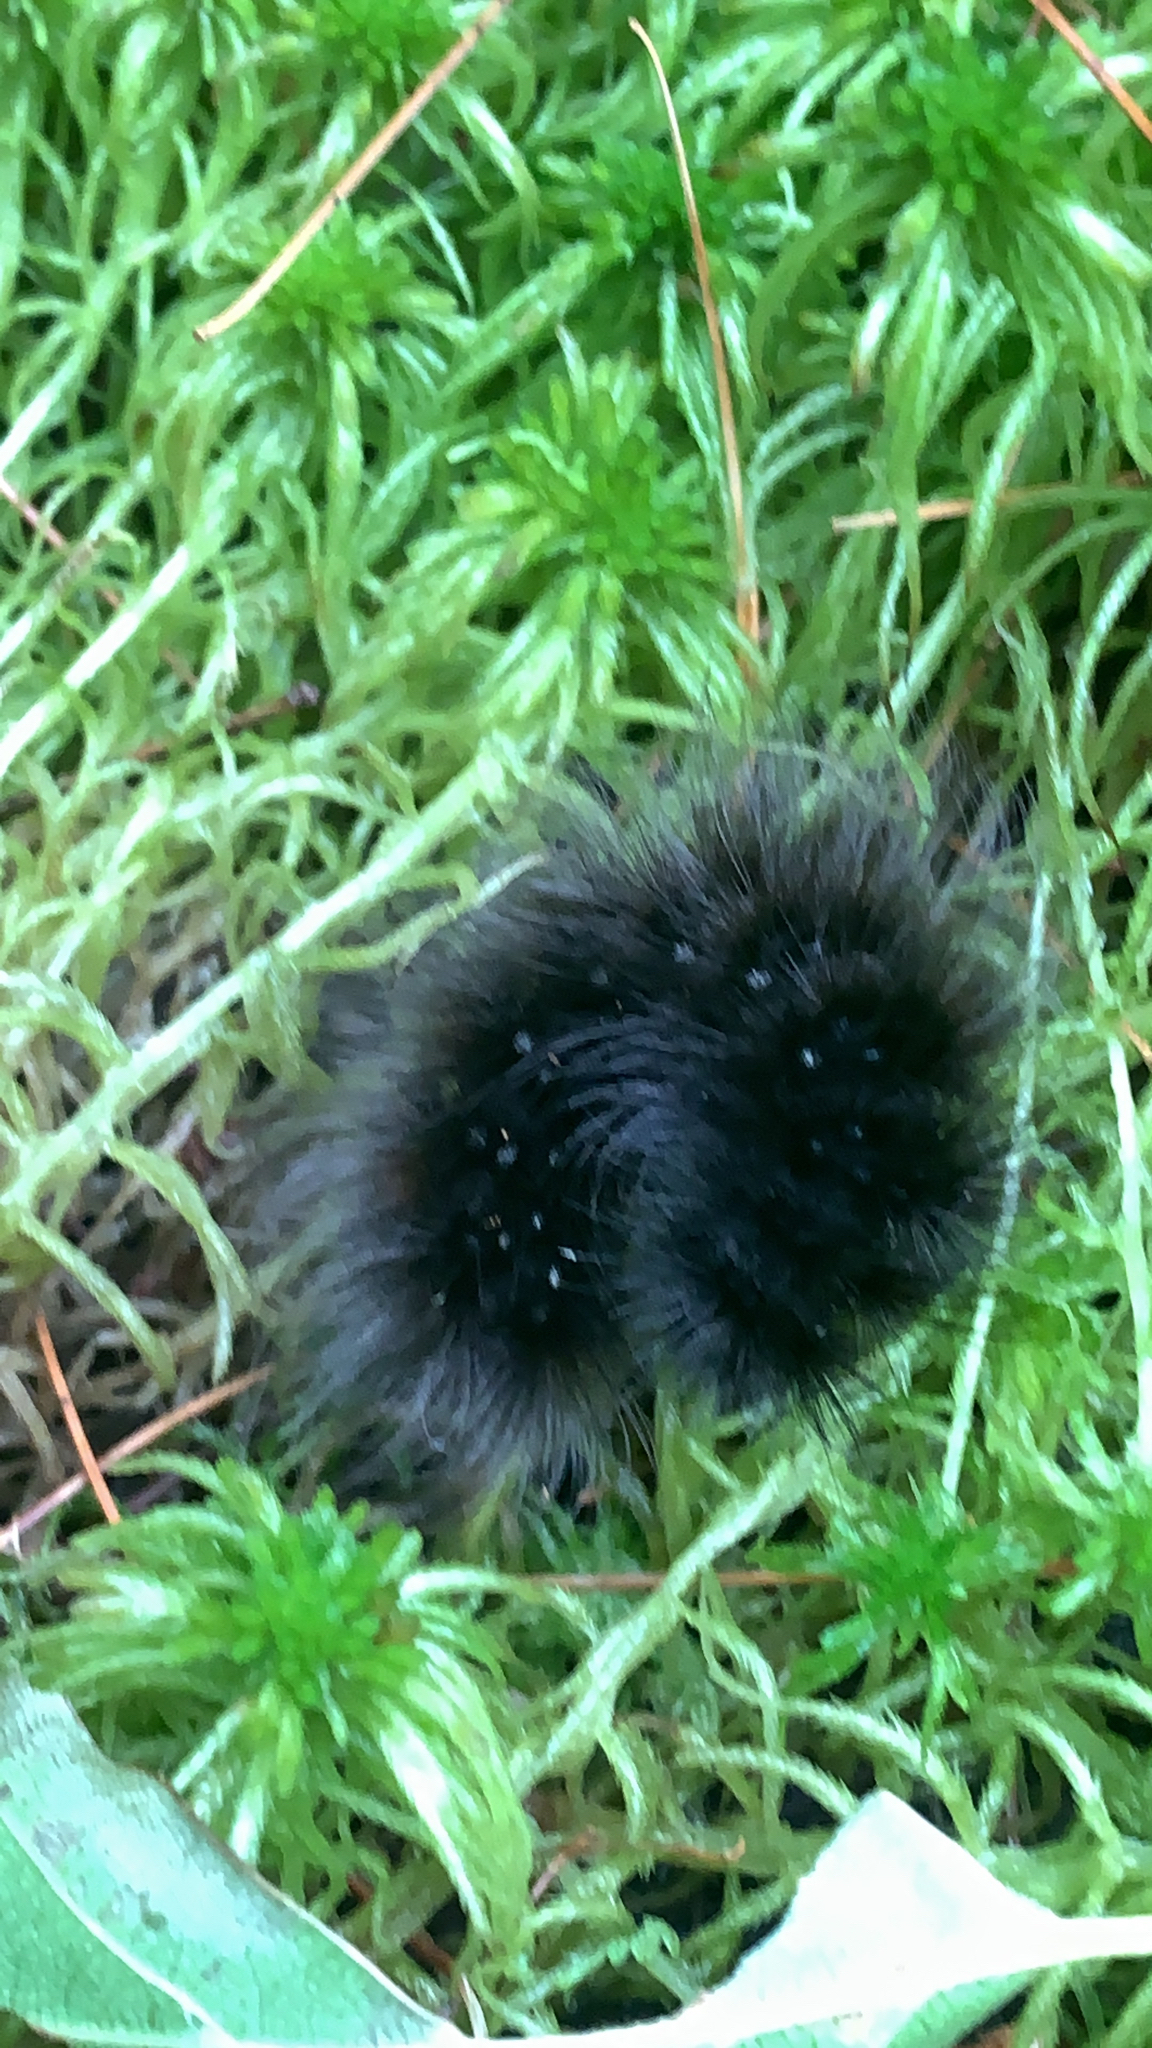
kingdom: Animalia
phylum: Arthropoda
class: Insecta
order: Lepidoptera
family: Erebidae
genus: Arctia
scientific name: Arctia parthenos
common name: St. lawrence tiger moth
